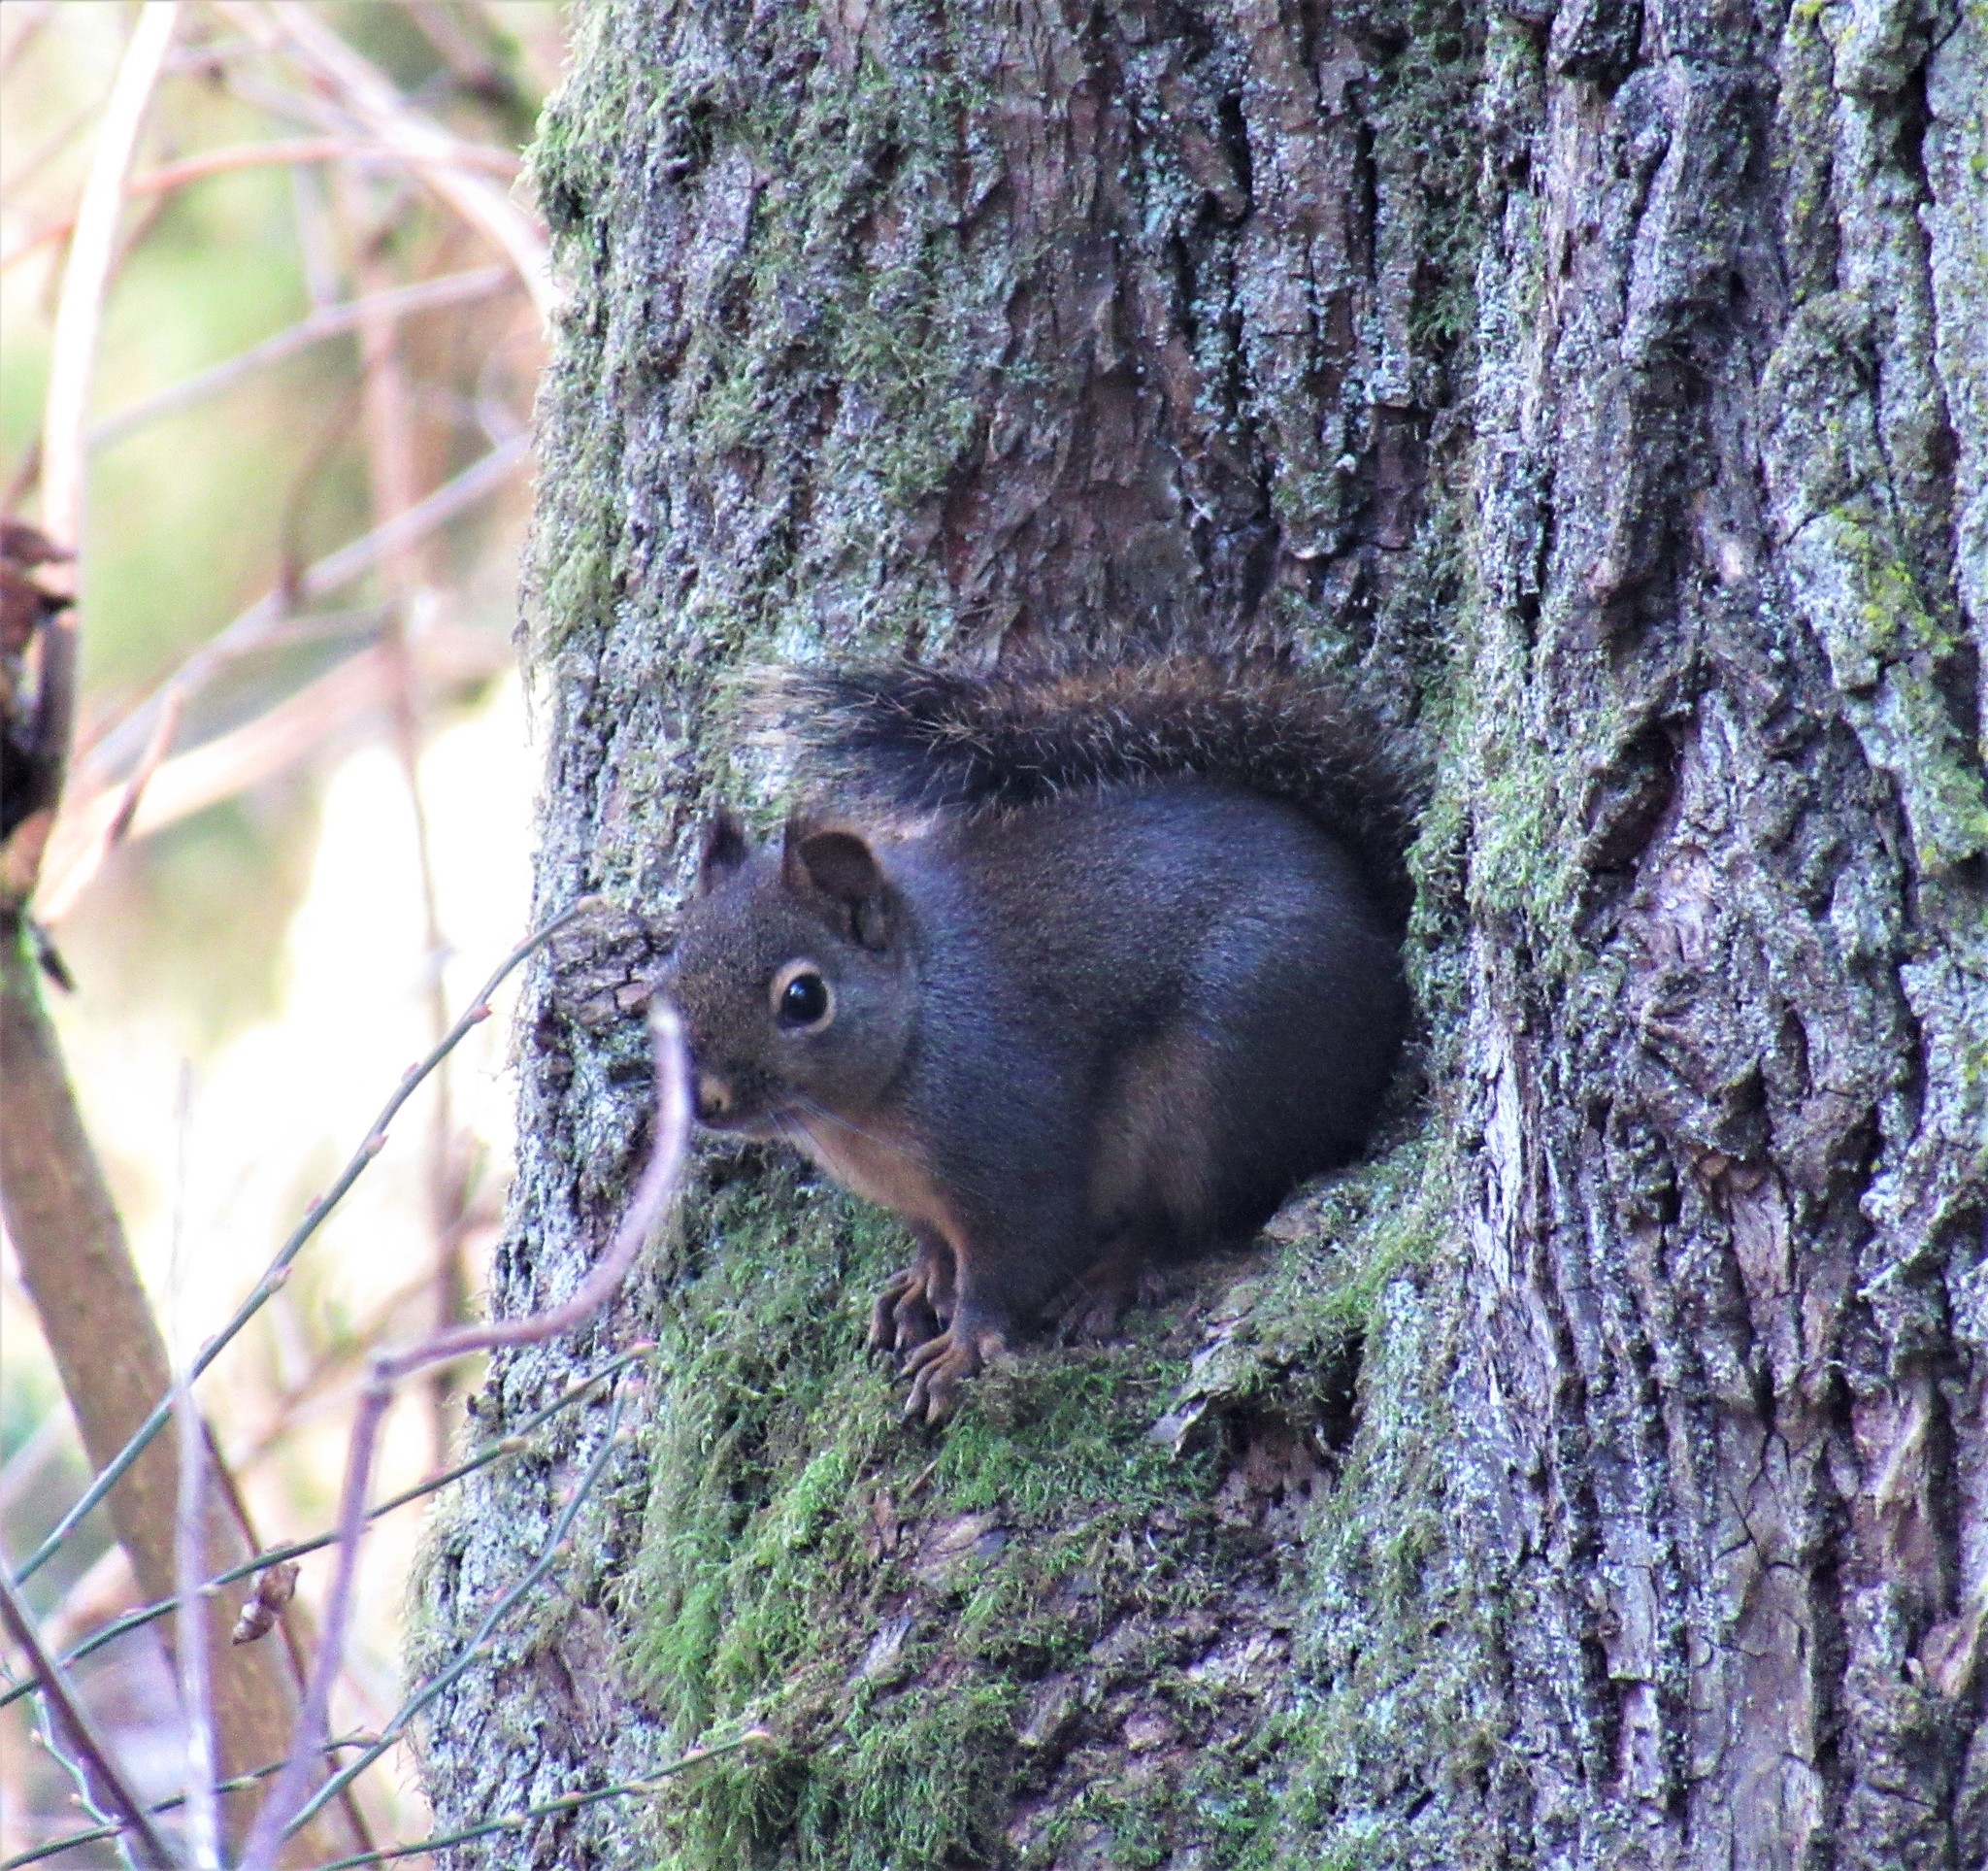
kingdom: Animalia
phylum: Chordata
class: Mammalia
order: Rodentia
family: Sciuridae
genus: Tamiasciurus
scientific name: Tamiasciurus douglasii
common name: Douglas's squirrel
